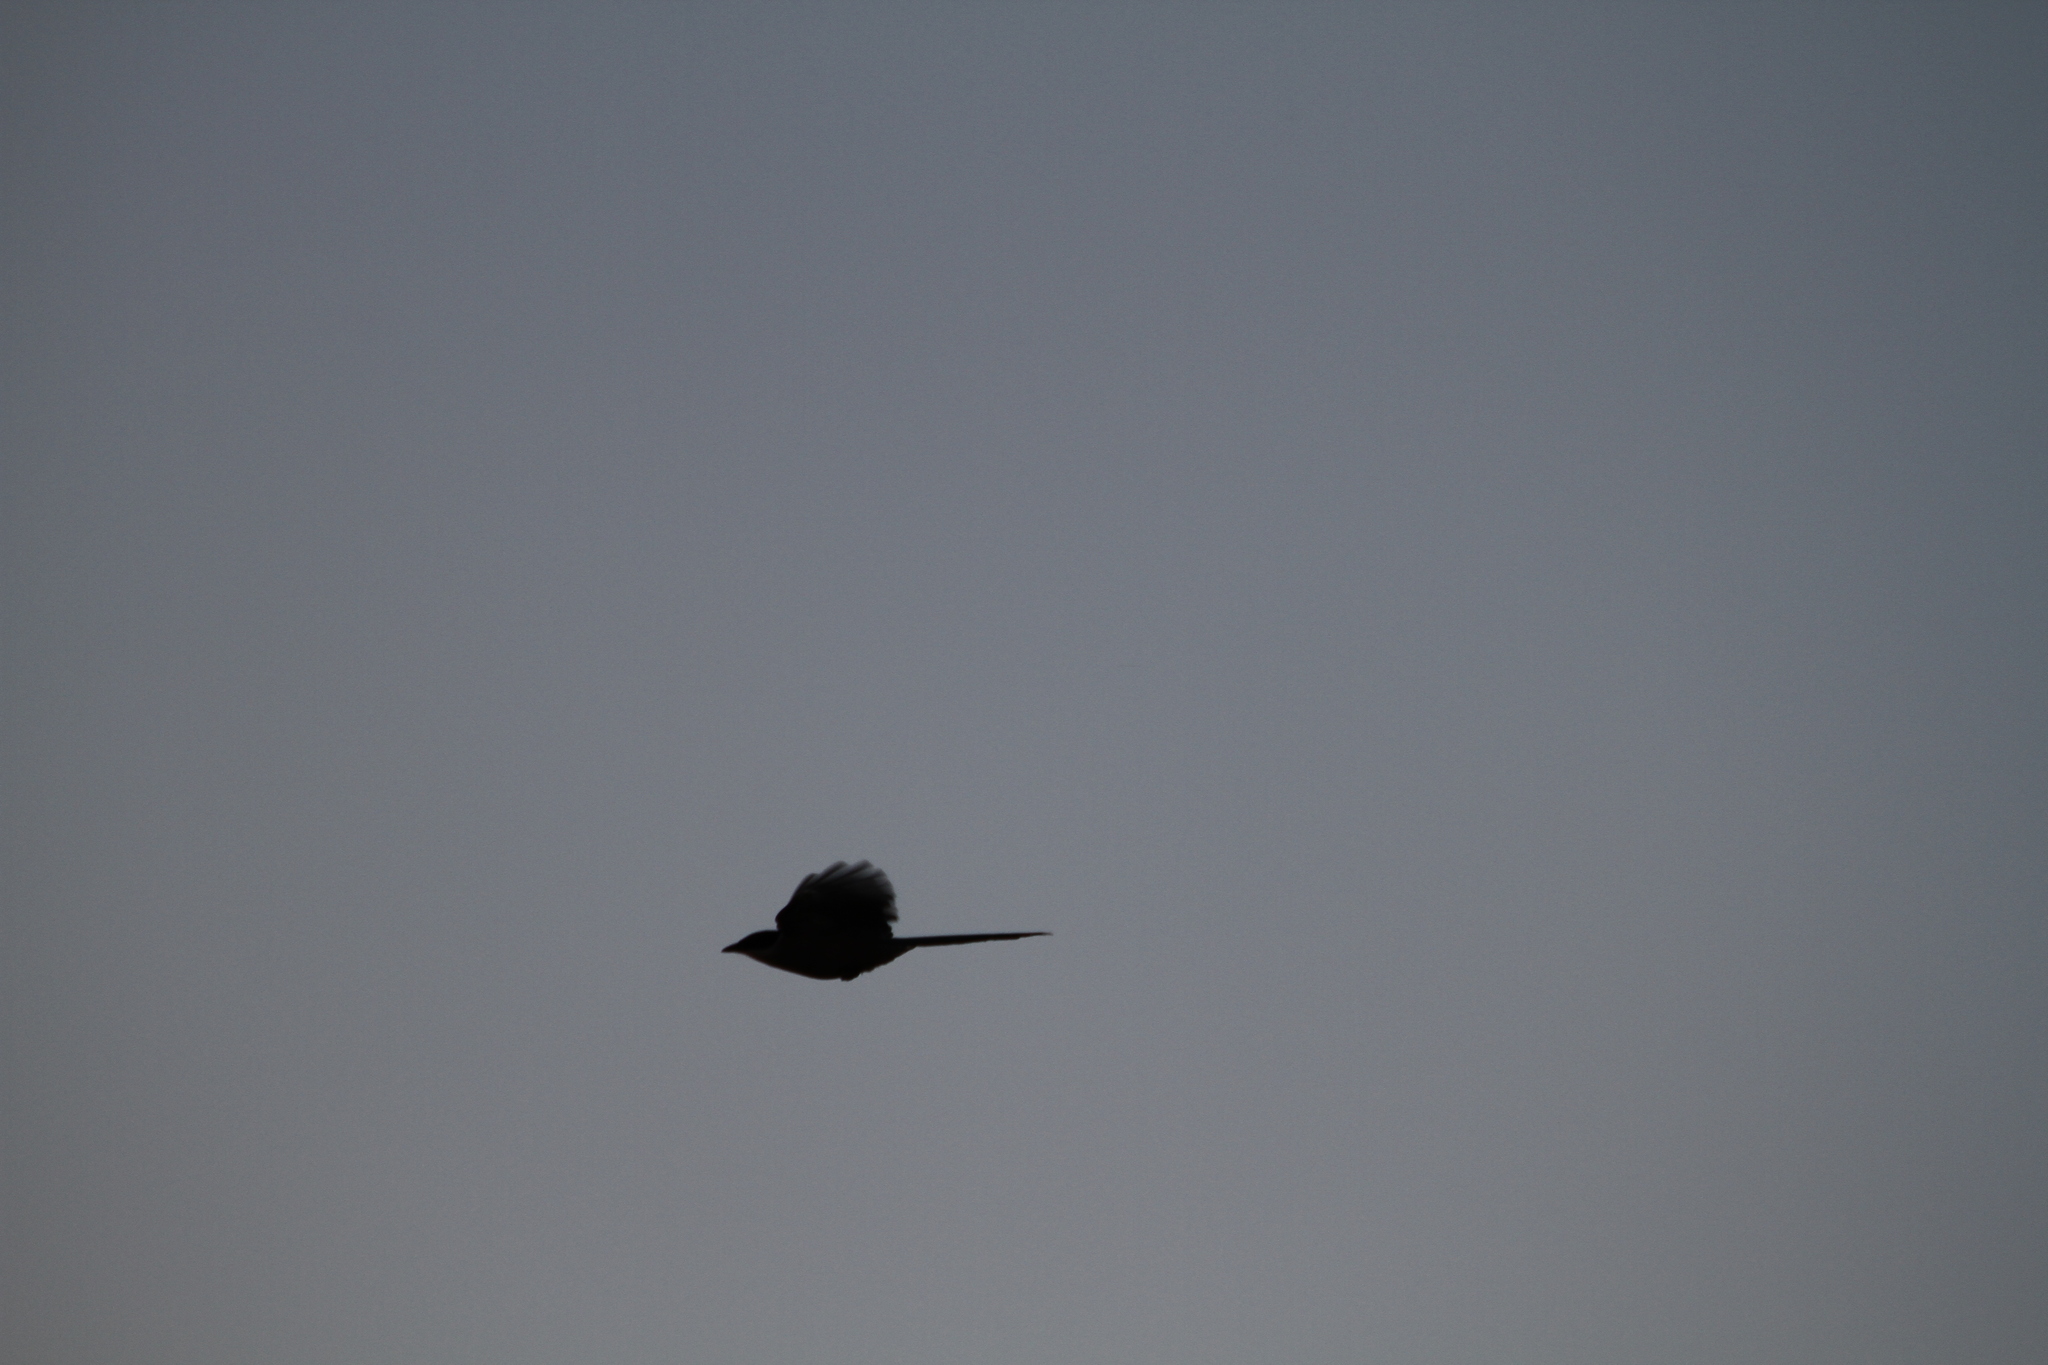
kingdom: Animalia
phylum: Chordata
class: Aves
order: Passeriformes
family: Corvidae
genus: Cyanopica
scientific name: Cyanopica cooki
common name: Iberian magpie
